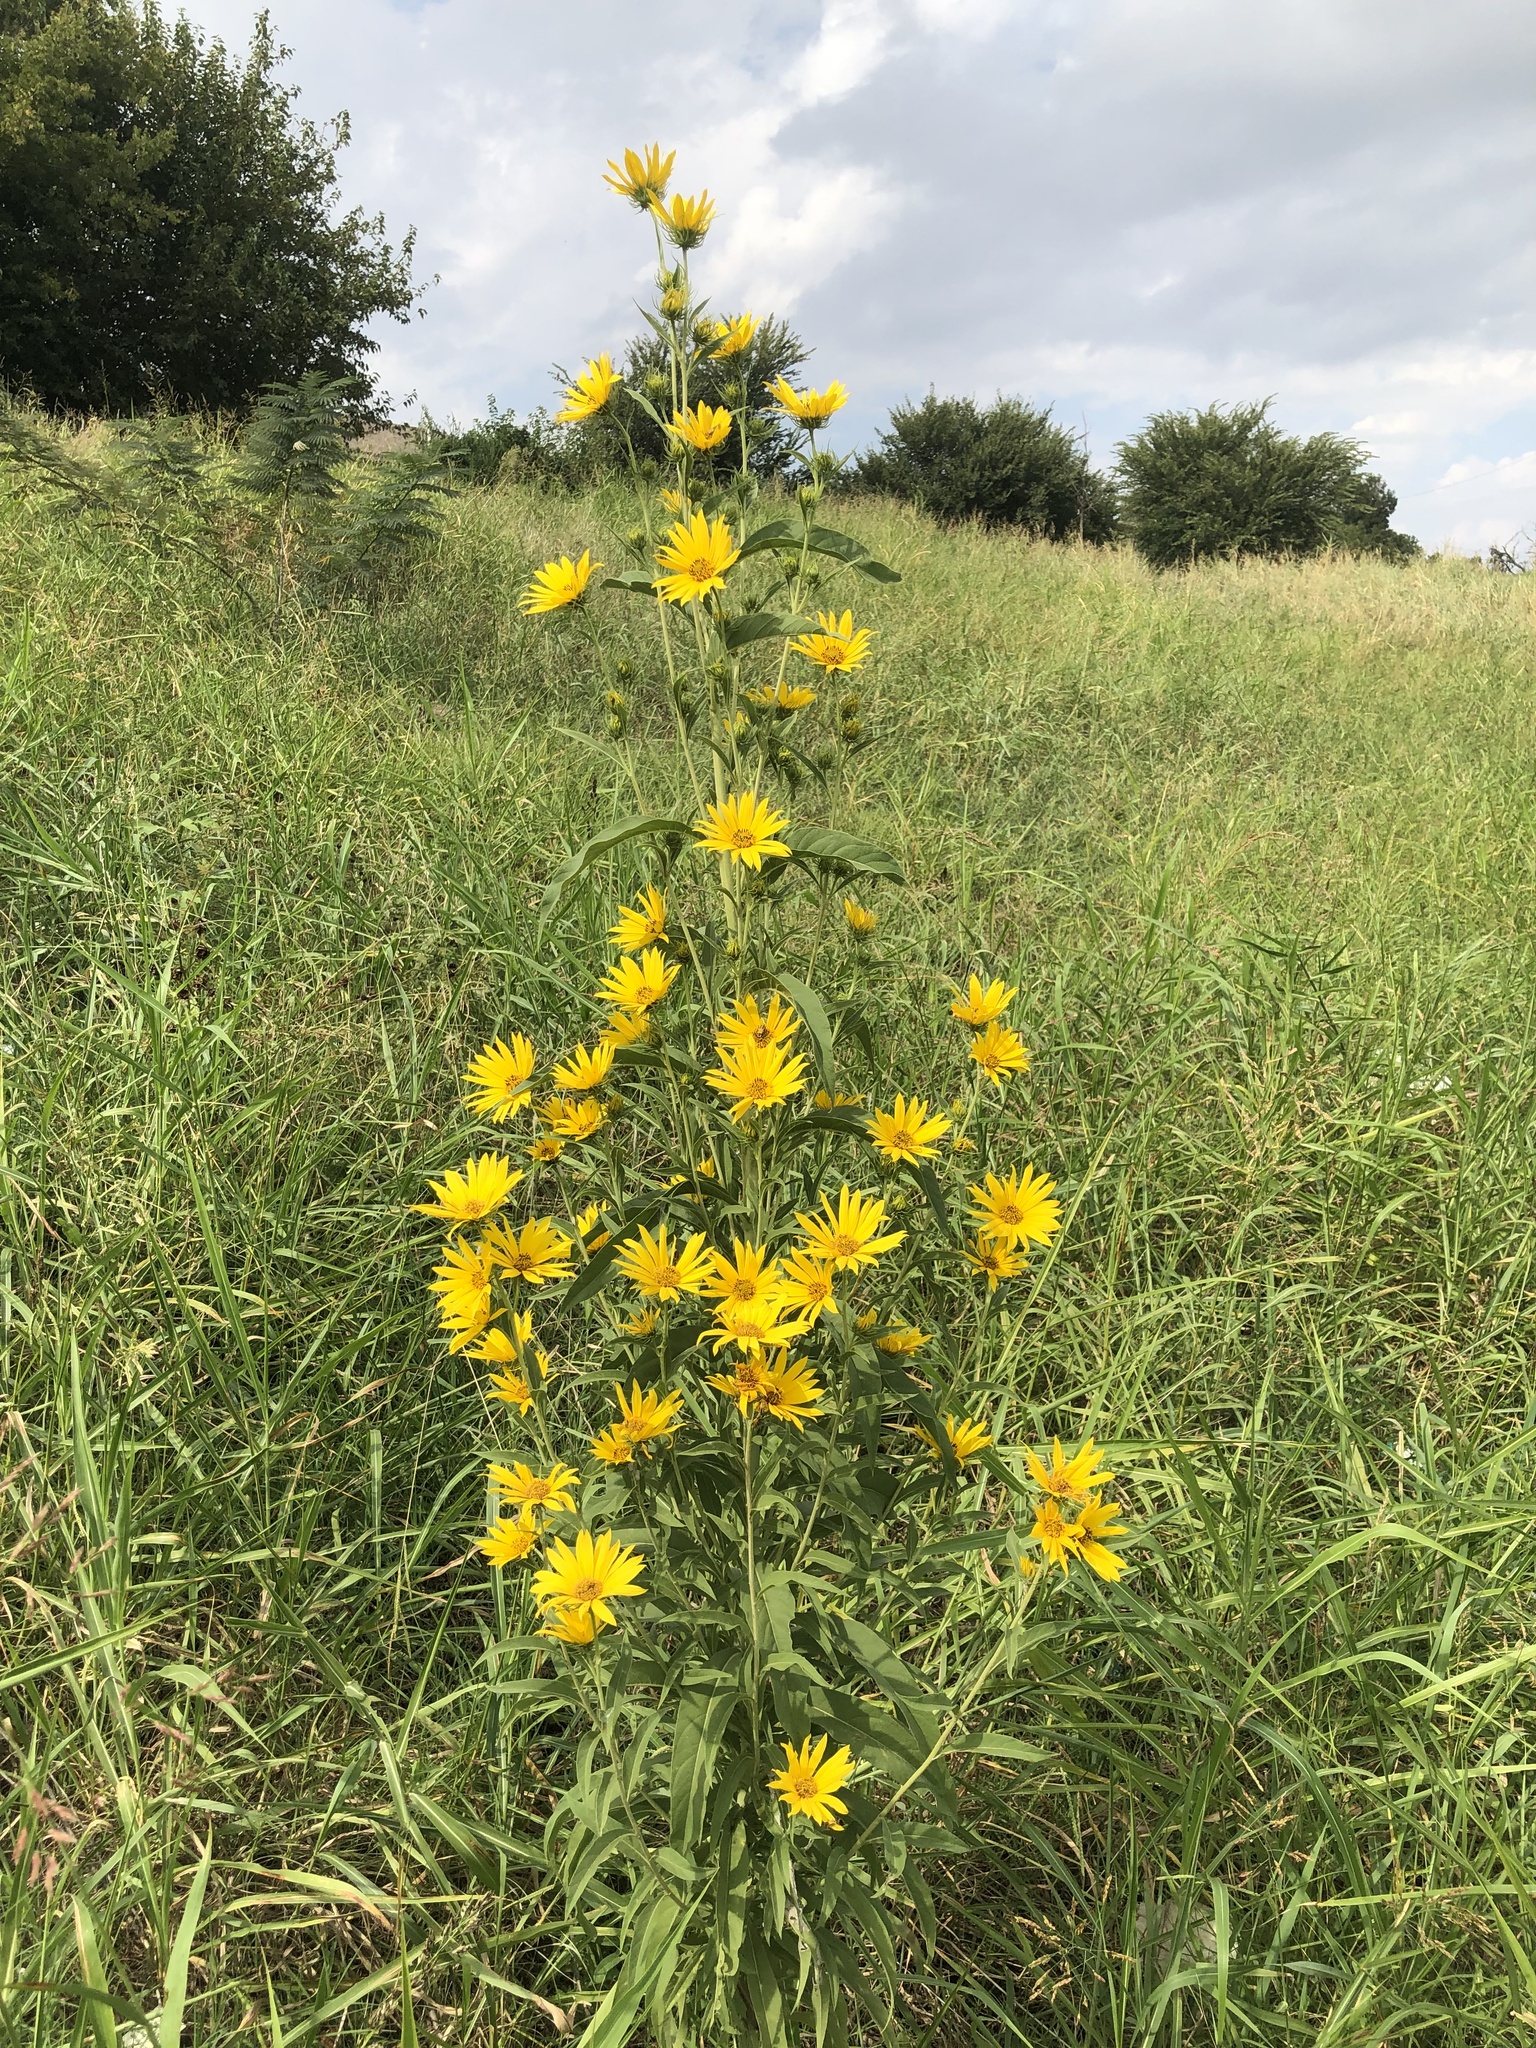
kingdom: Plantae
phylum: Tracheophyta
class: Magnoliopsida
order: Asterales
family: Asteraceae
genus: Helianthus
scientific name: Helianthus maximiliani
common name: Maximilian's sunflower
